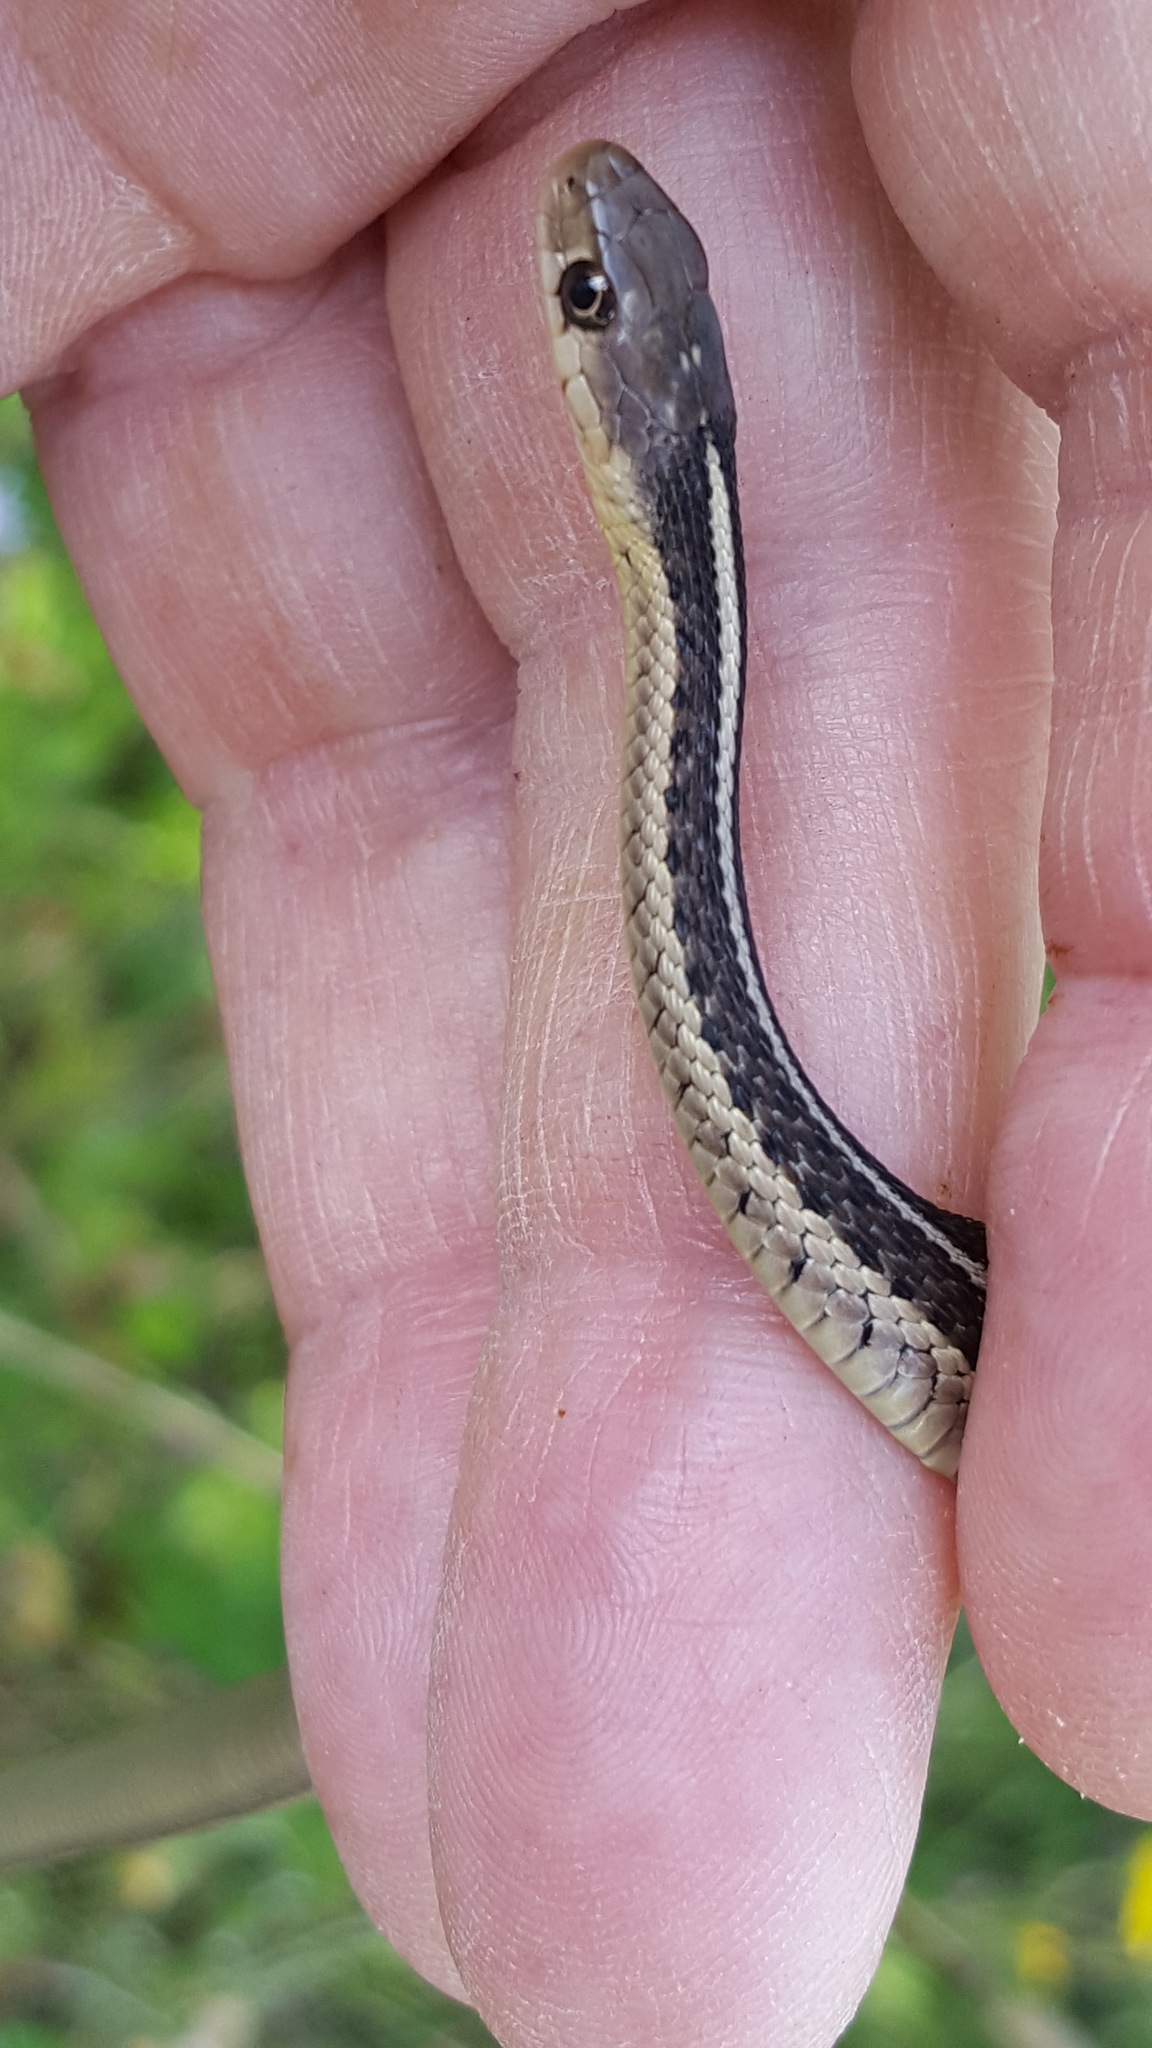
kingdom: Animalia
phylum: Chordata
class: Squamata
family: Colubridae
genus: Thamnophis
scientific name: Thamnophis sirtalis
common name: Common garter snake
